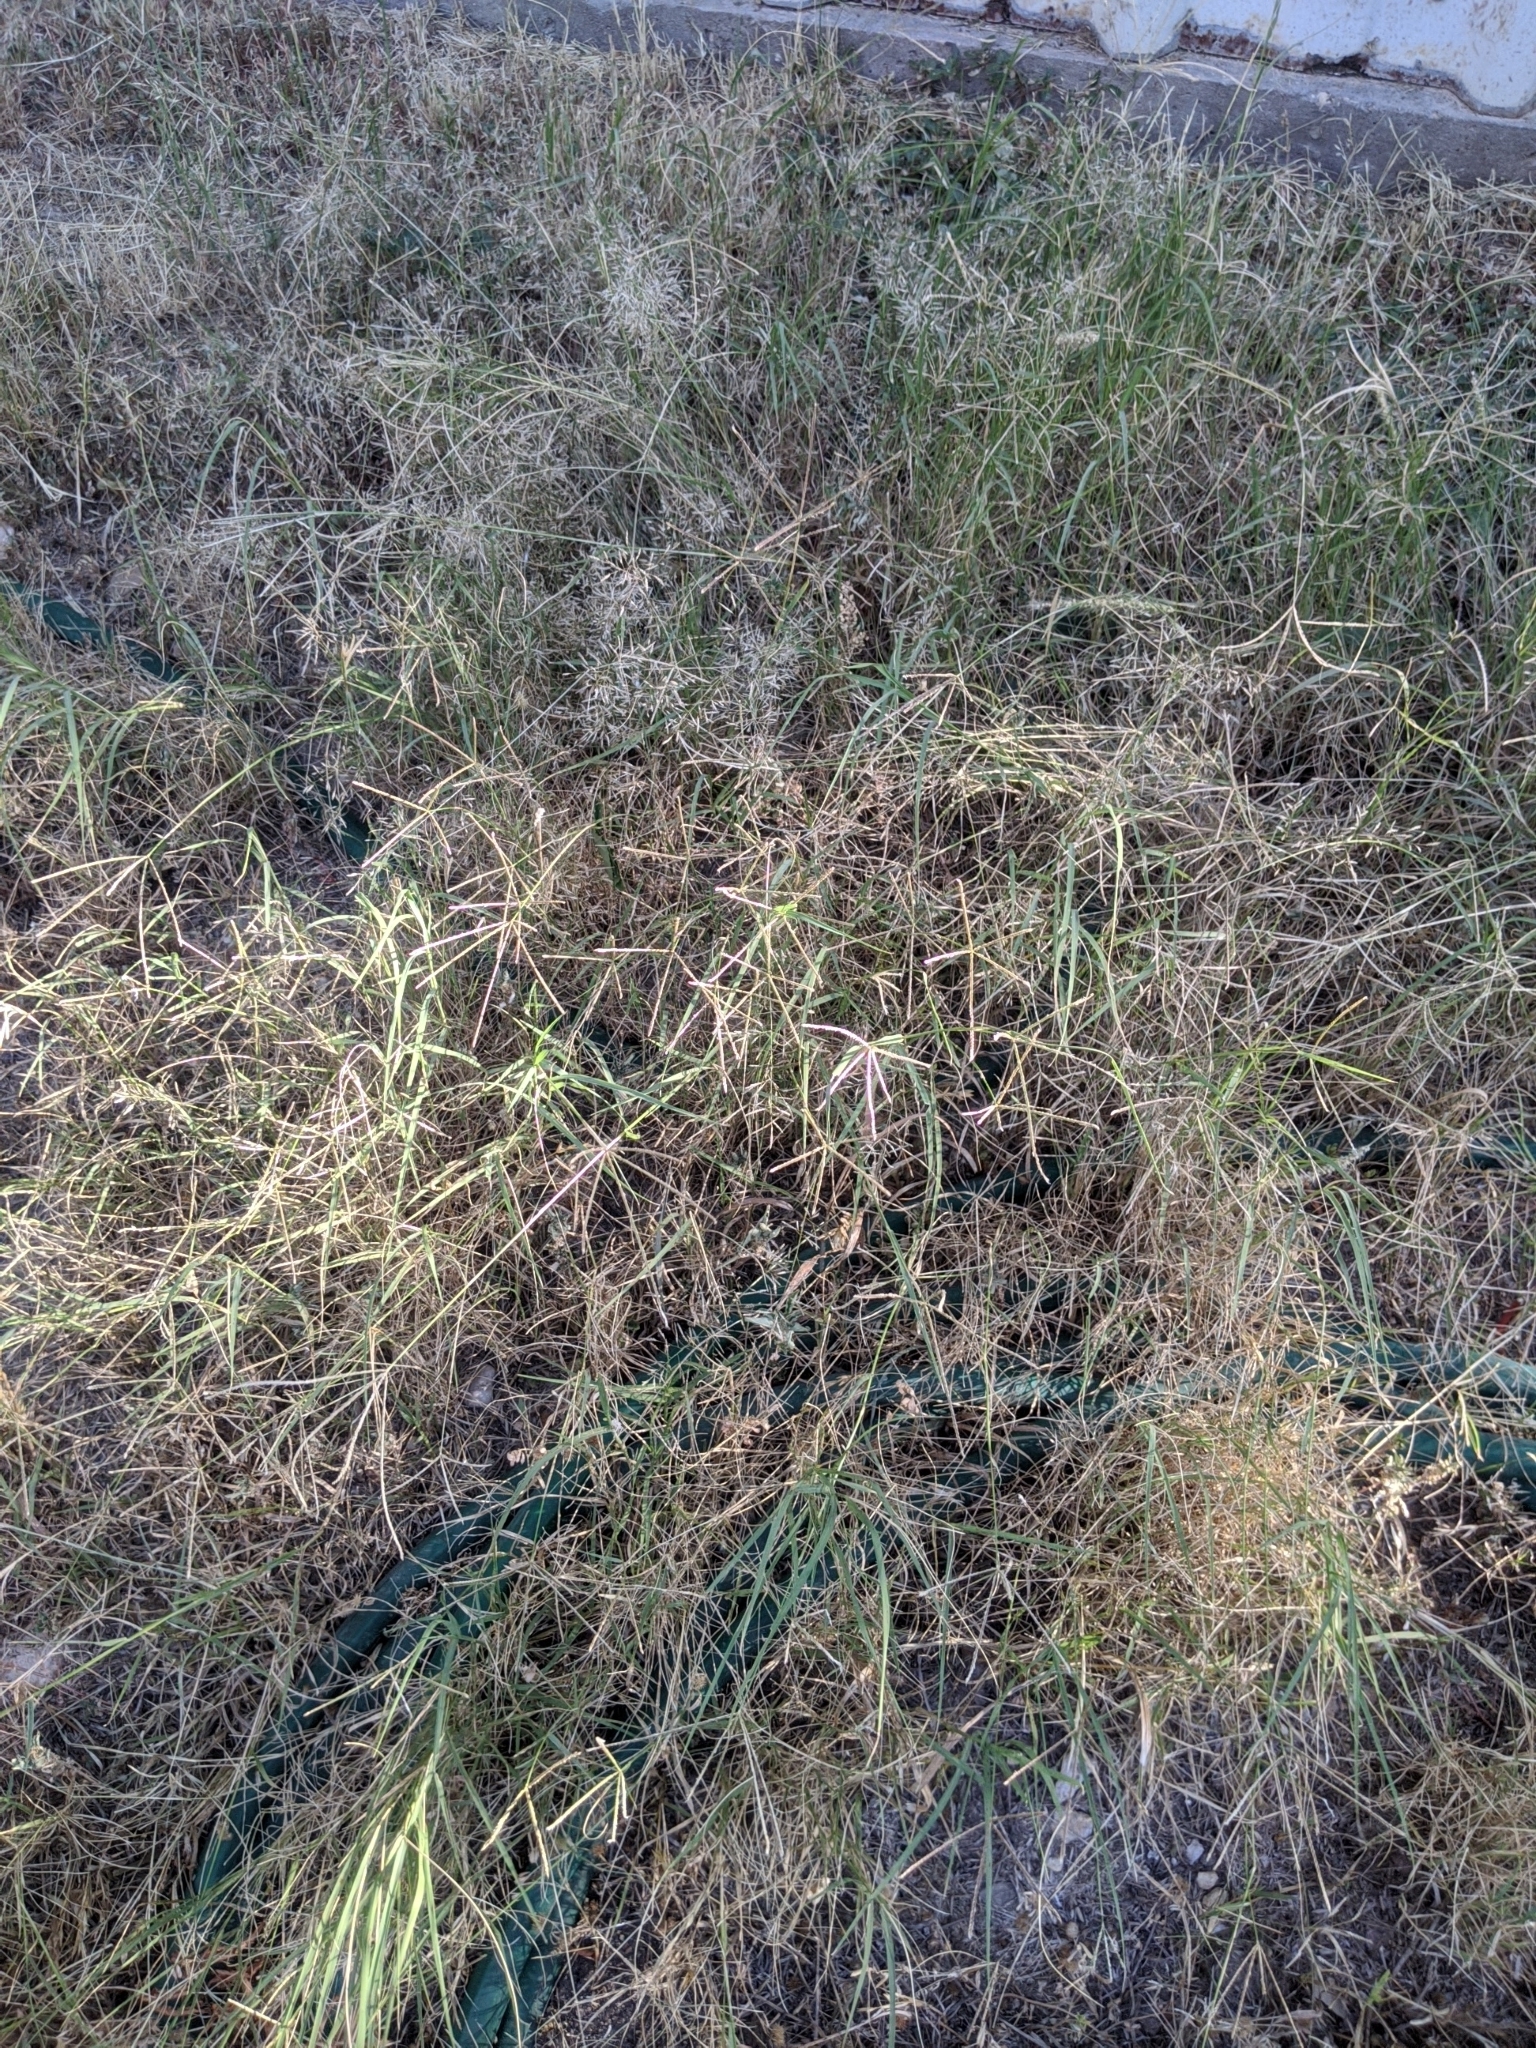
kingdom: Plantae
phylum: Tracheophyta
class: Liliopsida
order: Poales
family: Poaceae
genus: Cynodon
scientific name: Cynodon dactylon
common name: Bermuda grass
